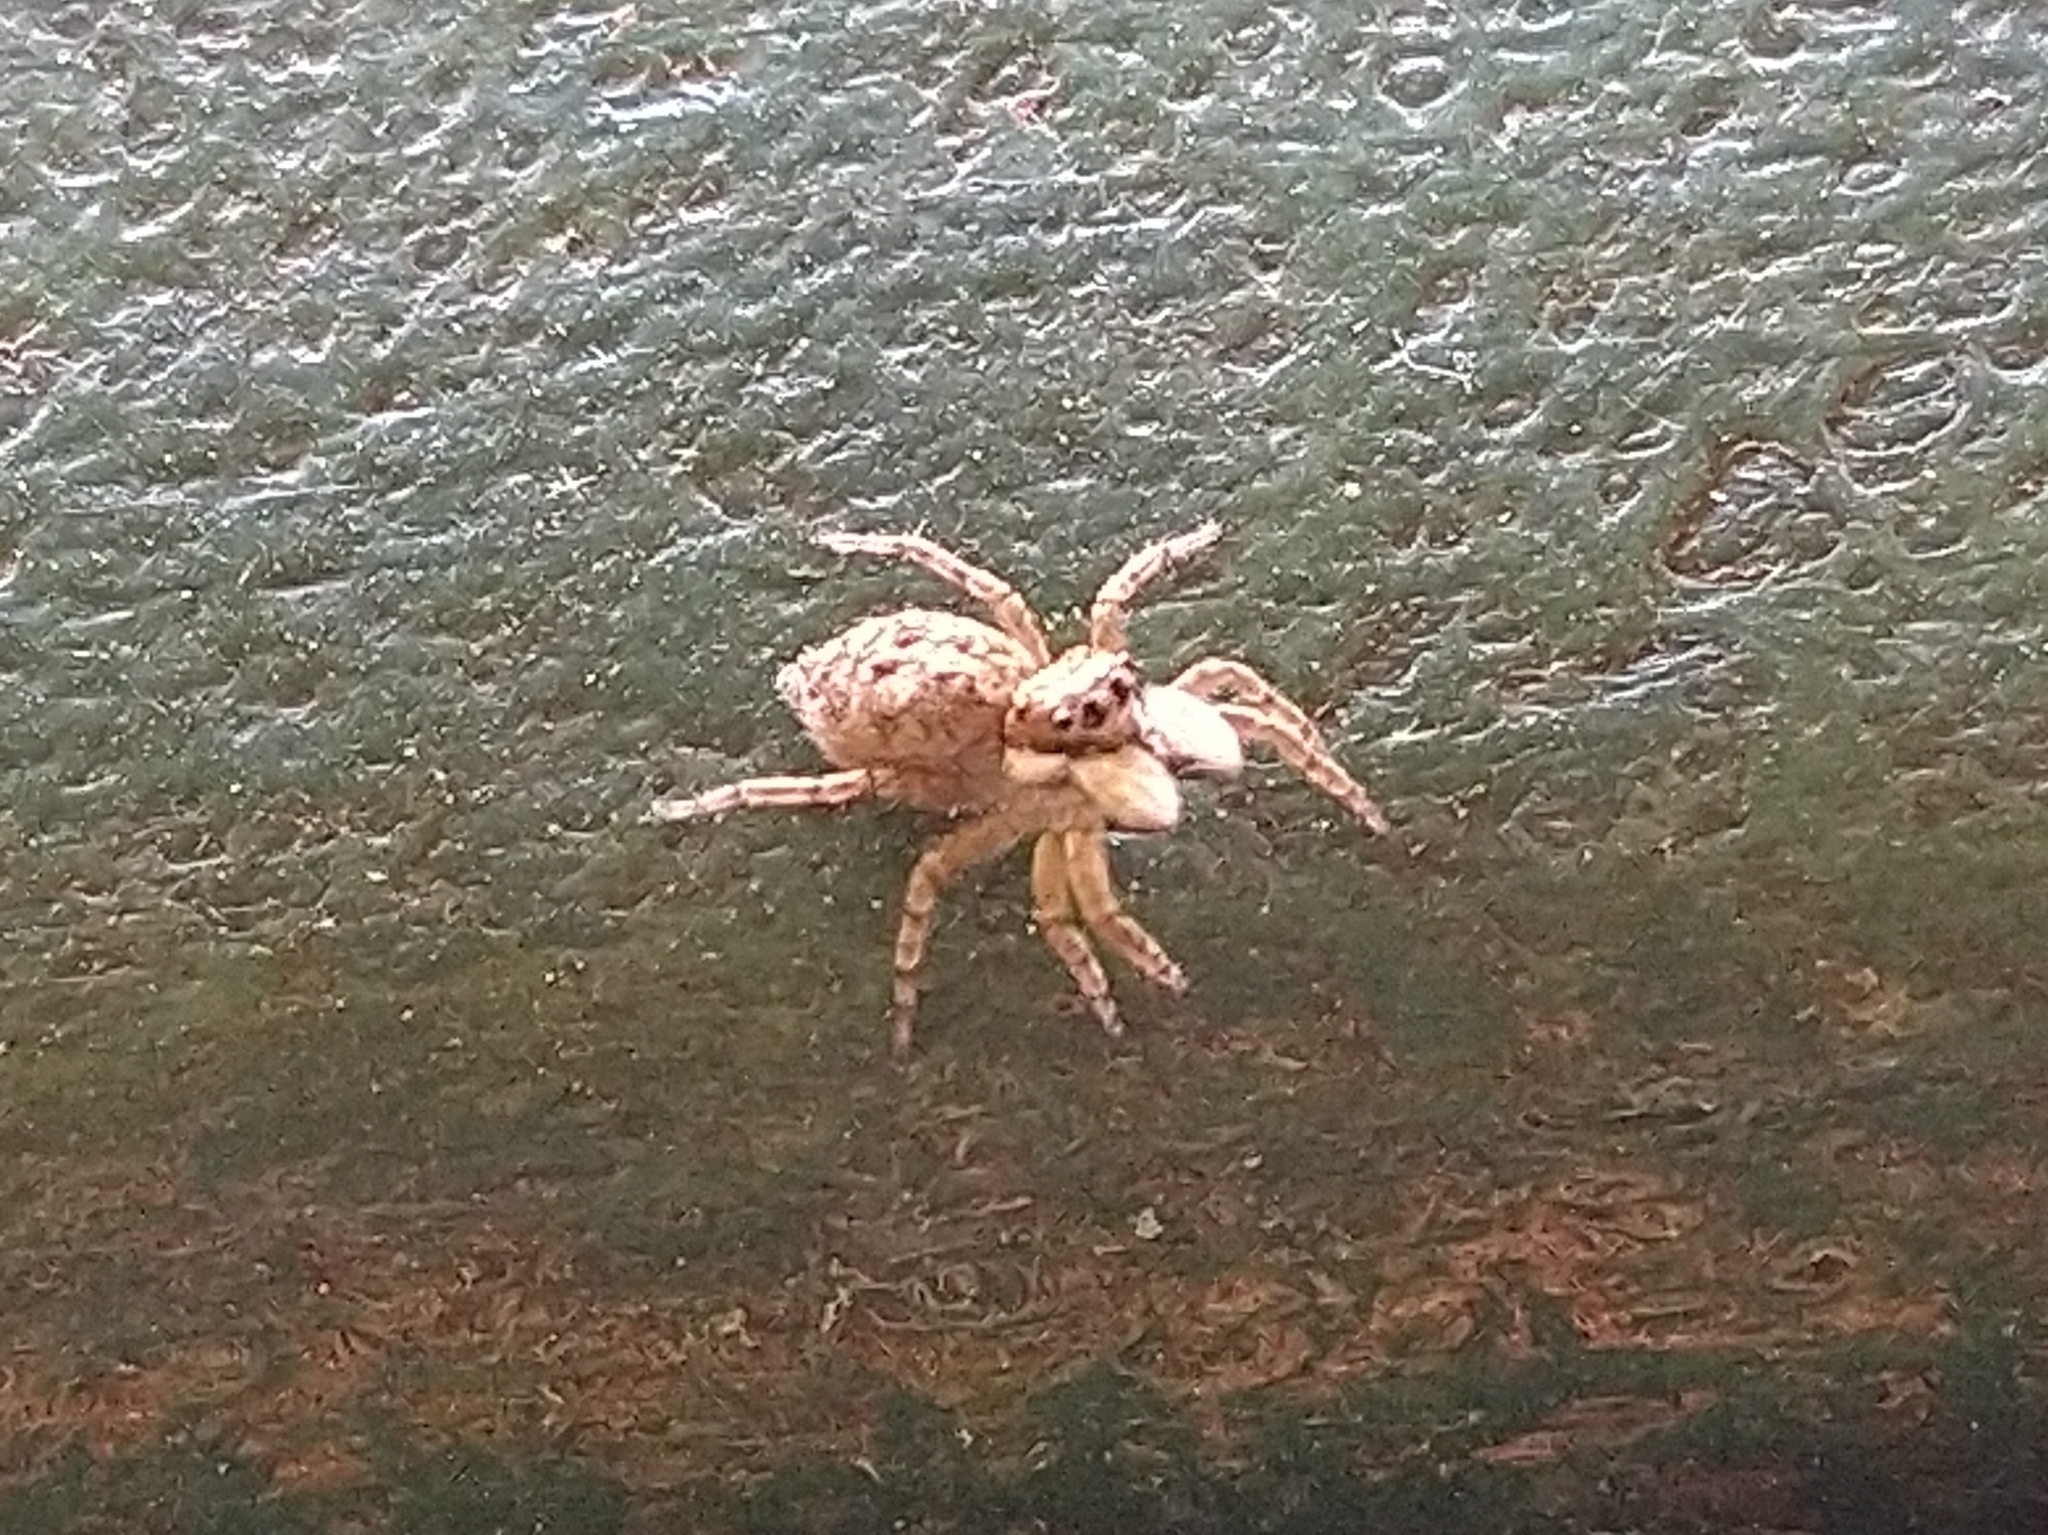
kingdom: Animalia
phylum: Arthropoda
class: Arachnida
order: Araneae
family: Salticidae
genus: Menemerus
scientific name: Menemerus semilimbatus
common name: Jumping spider
